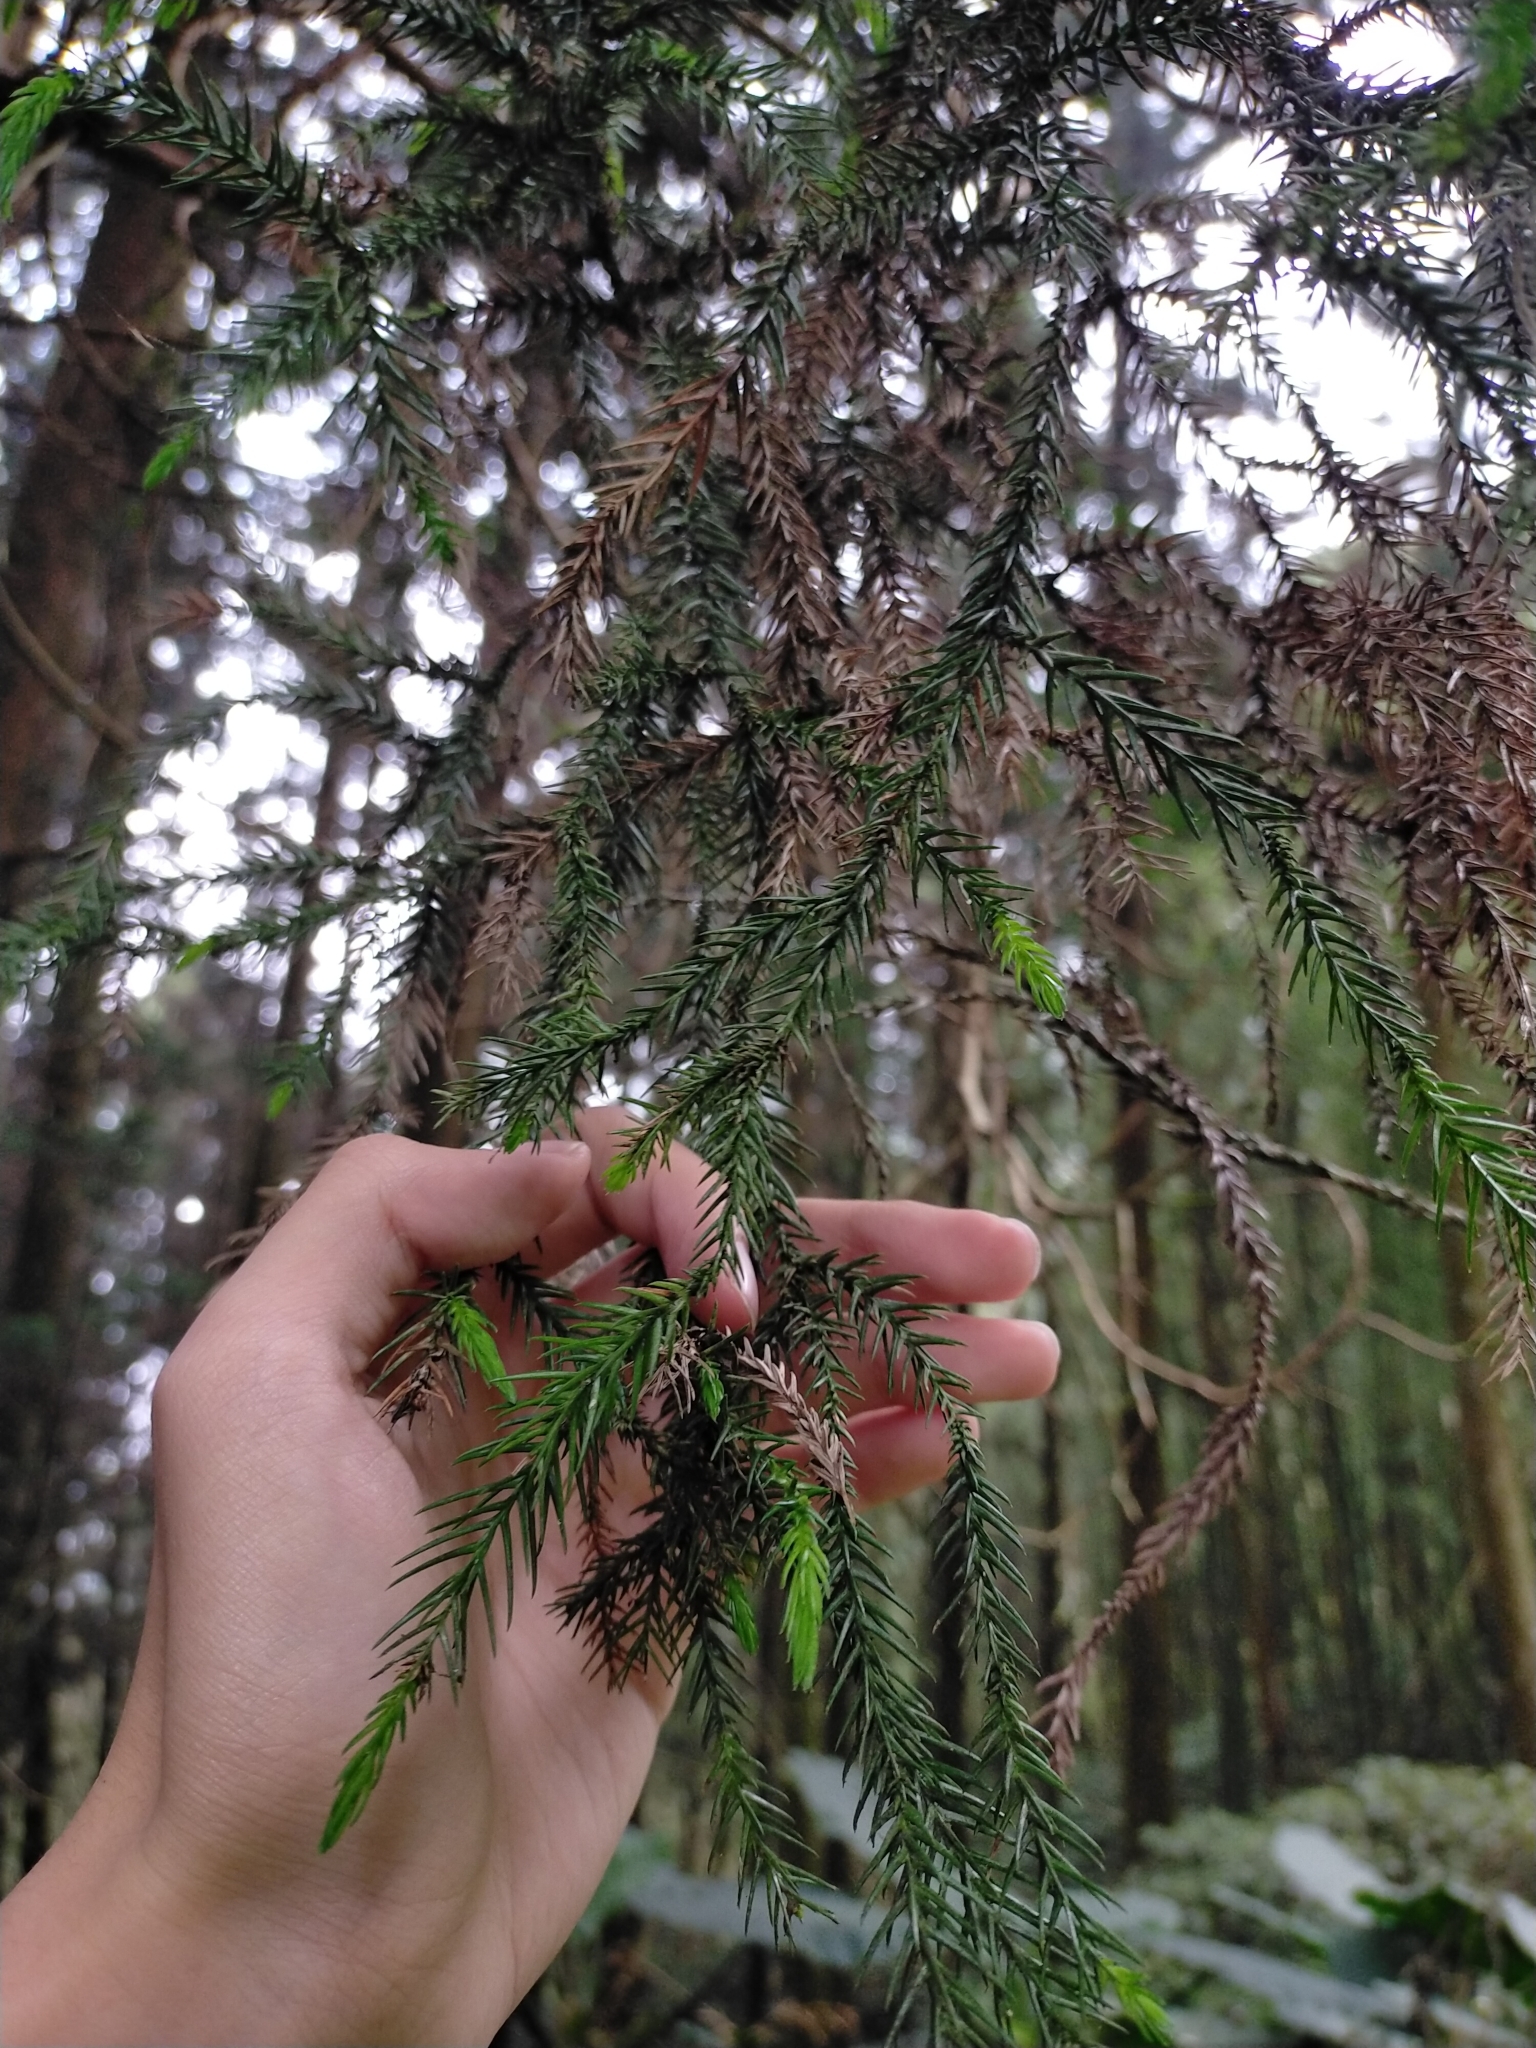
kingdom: Plantae
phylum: Tracheophyta
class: Pinopsida
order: Pinales
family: Cupressaceae
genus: Cryptomeria
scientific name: Cryptomeria japonica
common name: Japanese cedar
